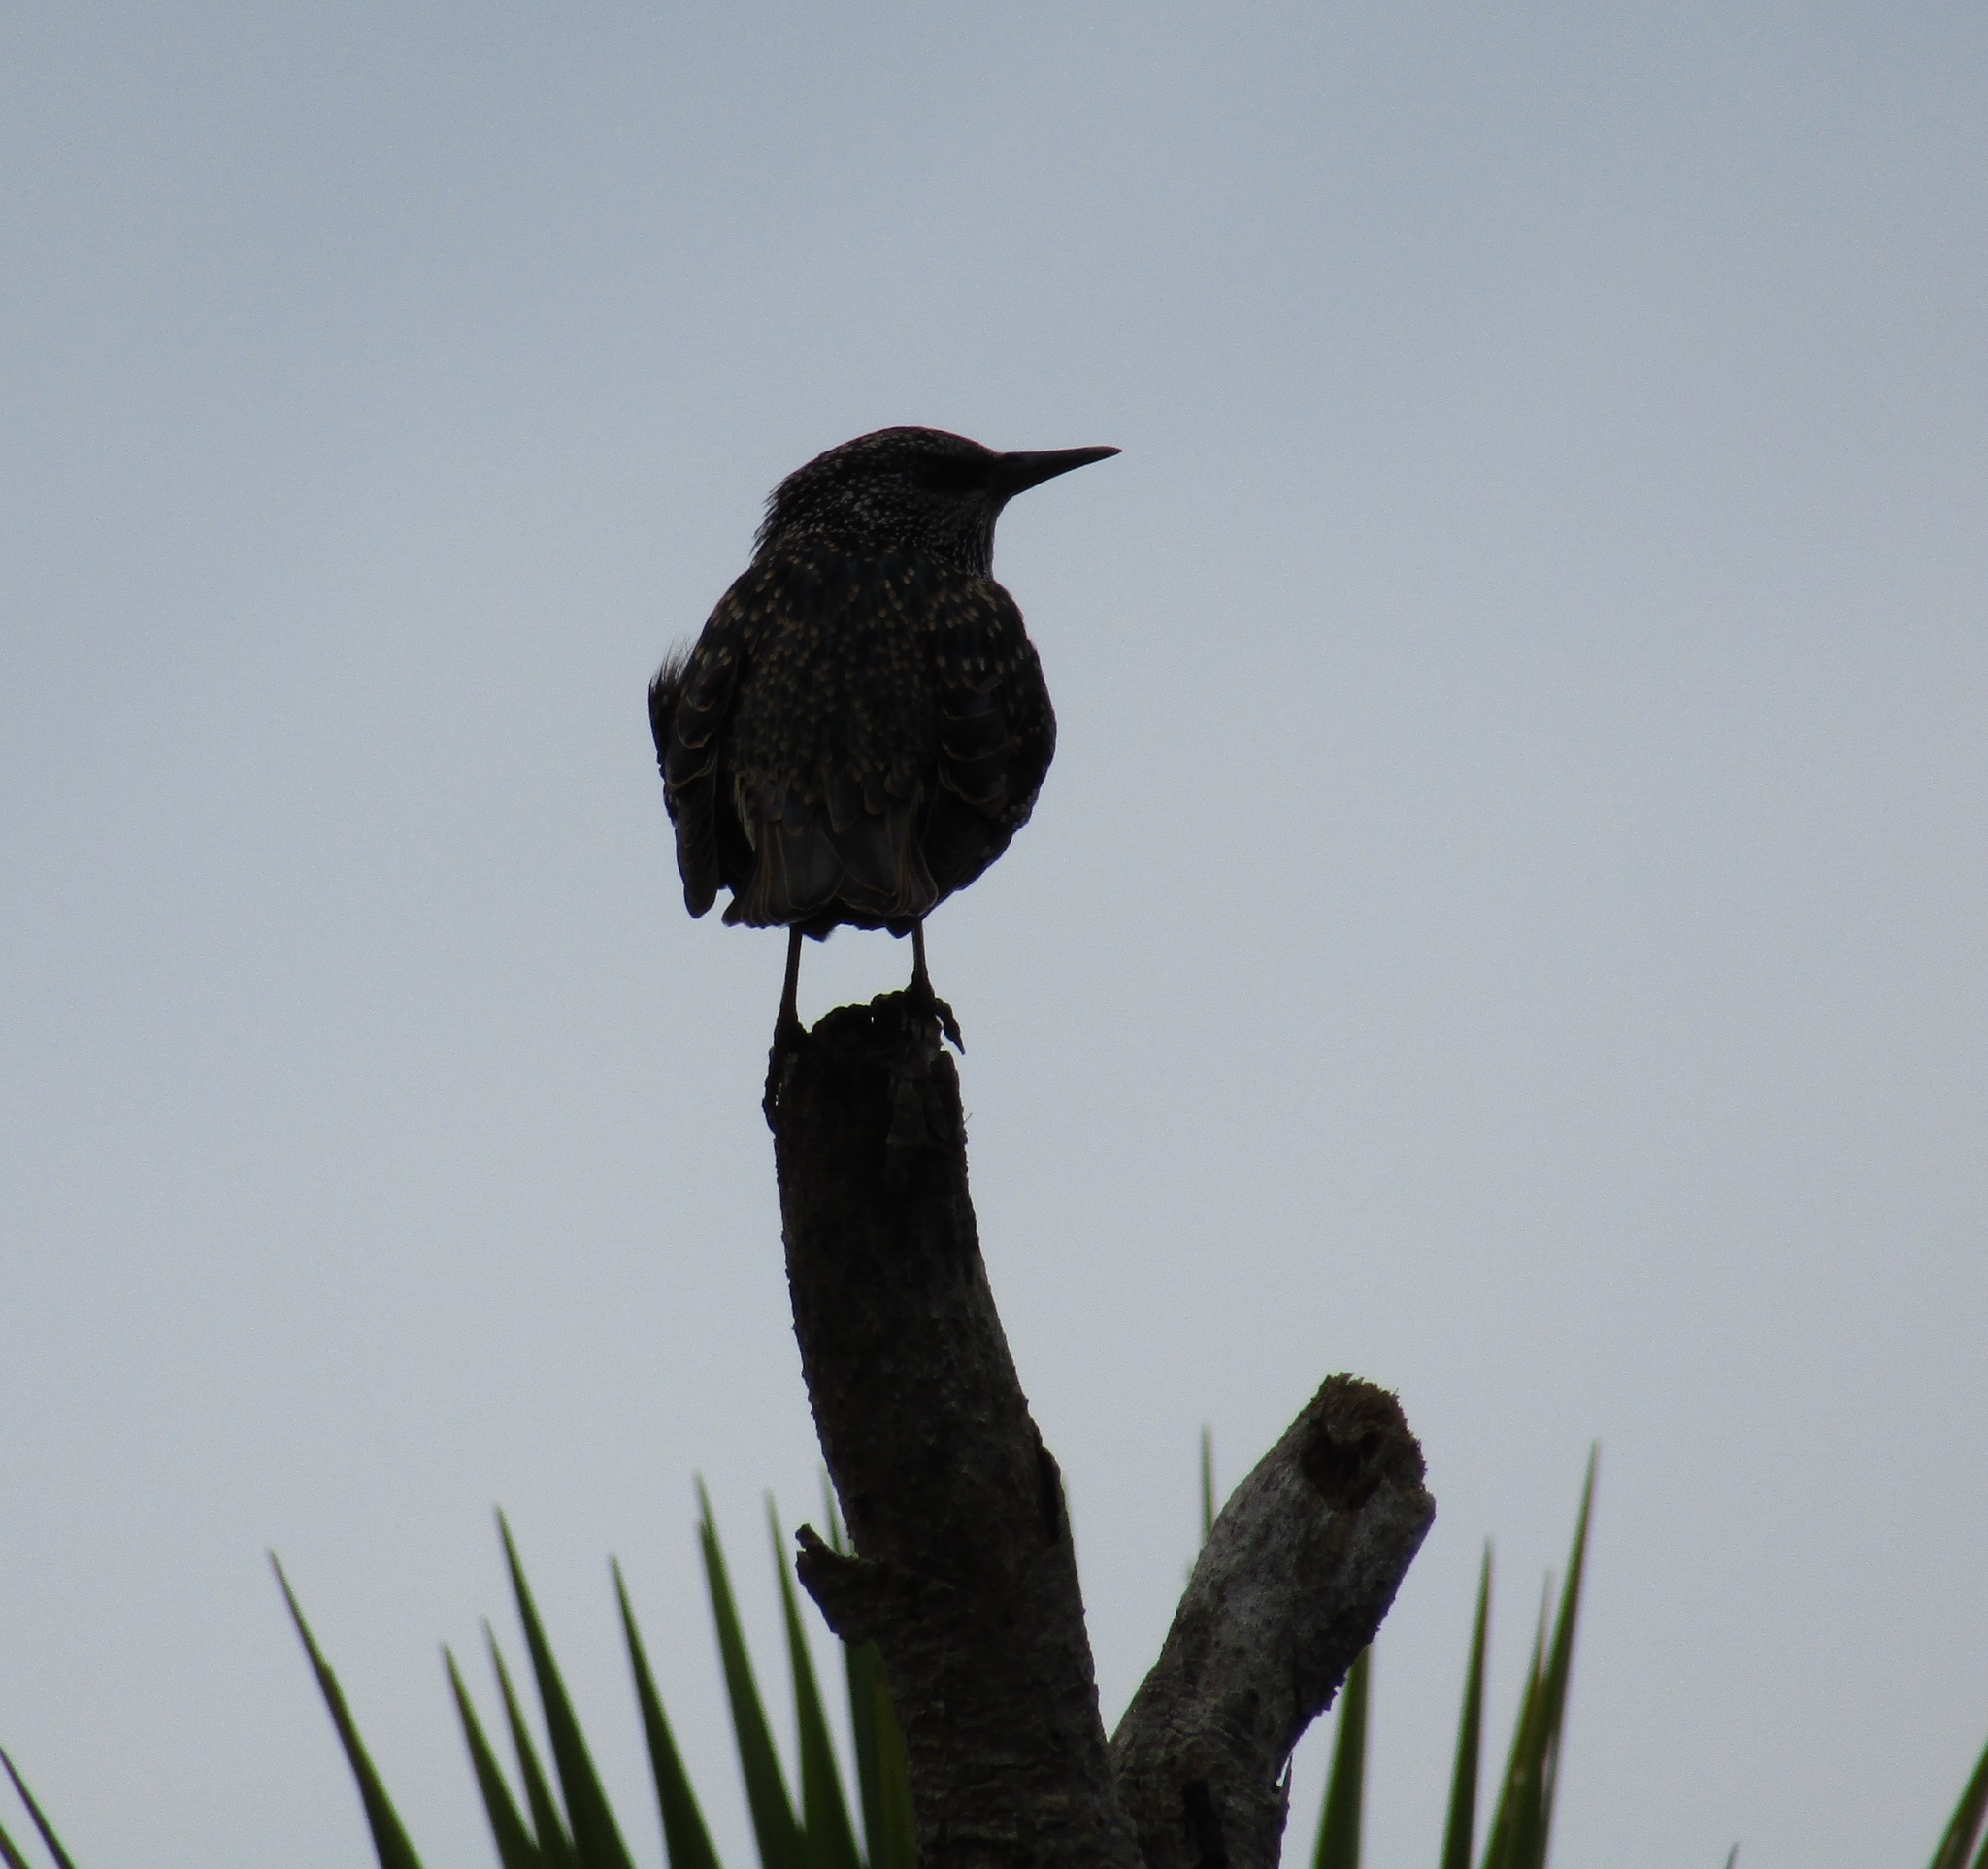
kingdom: Animalia
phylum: Chordata
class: Aves
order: Passeriformes
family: Sturnidae
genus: Sturnus
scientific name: Sturnus vulgaris
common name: Common starling
